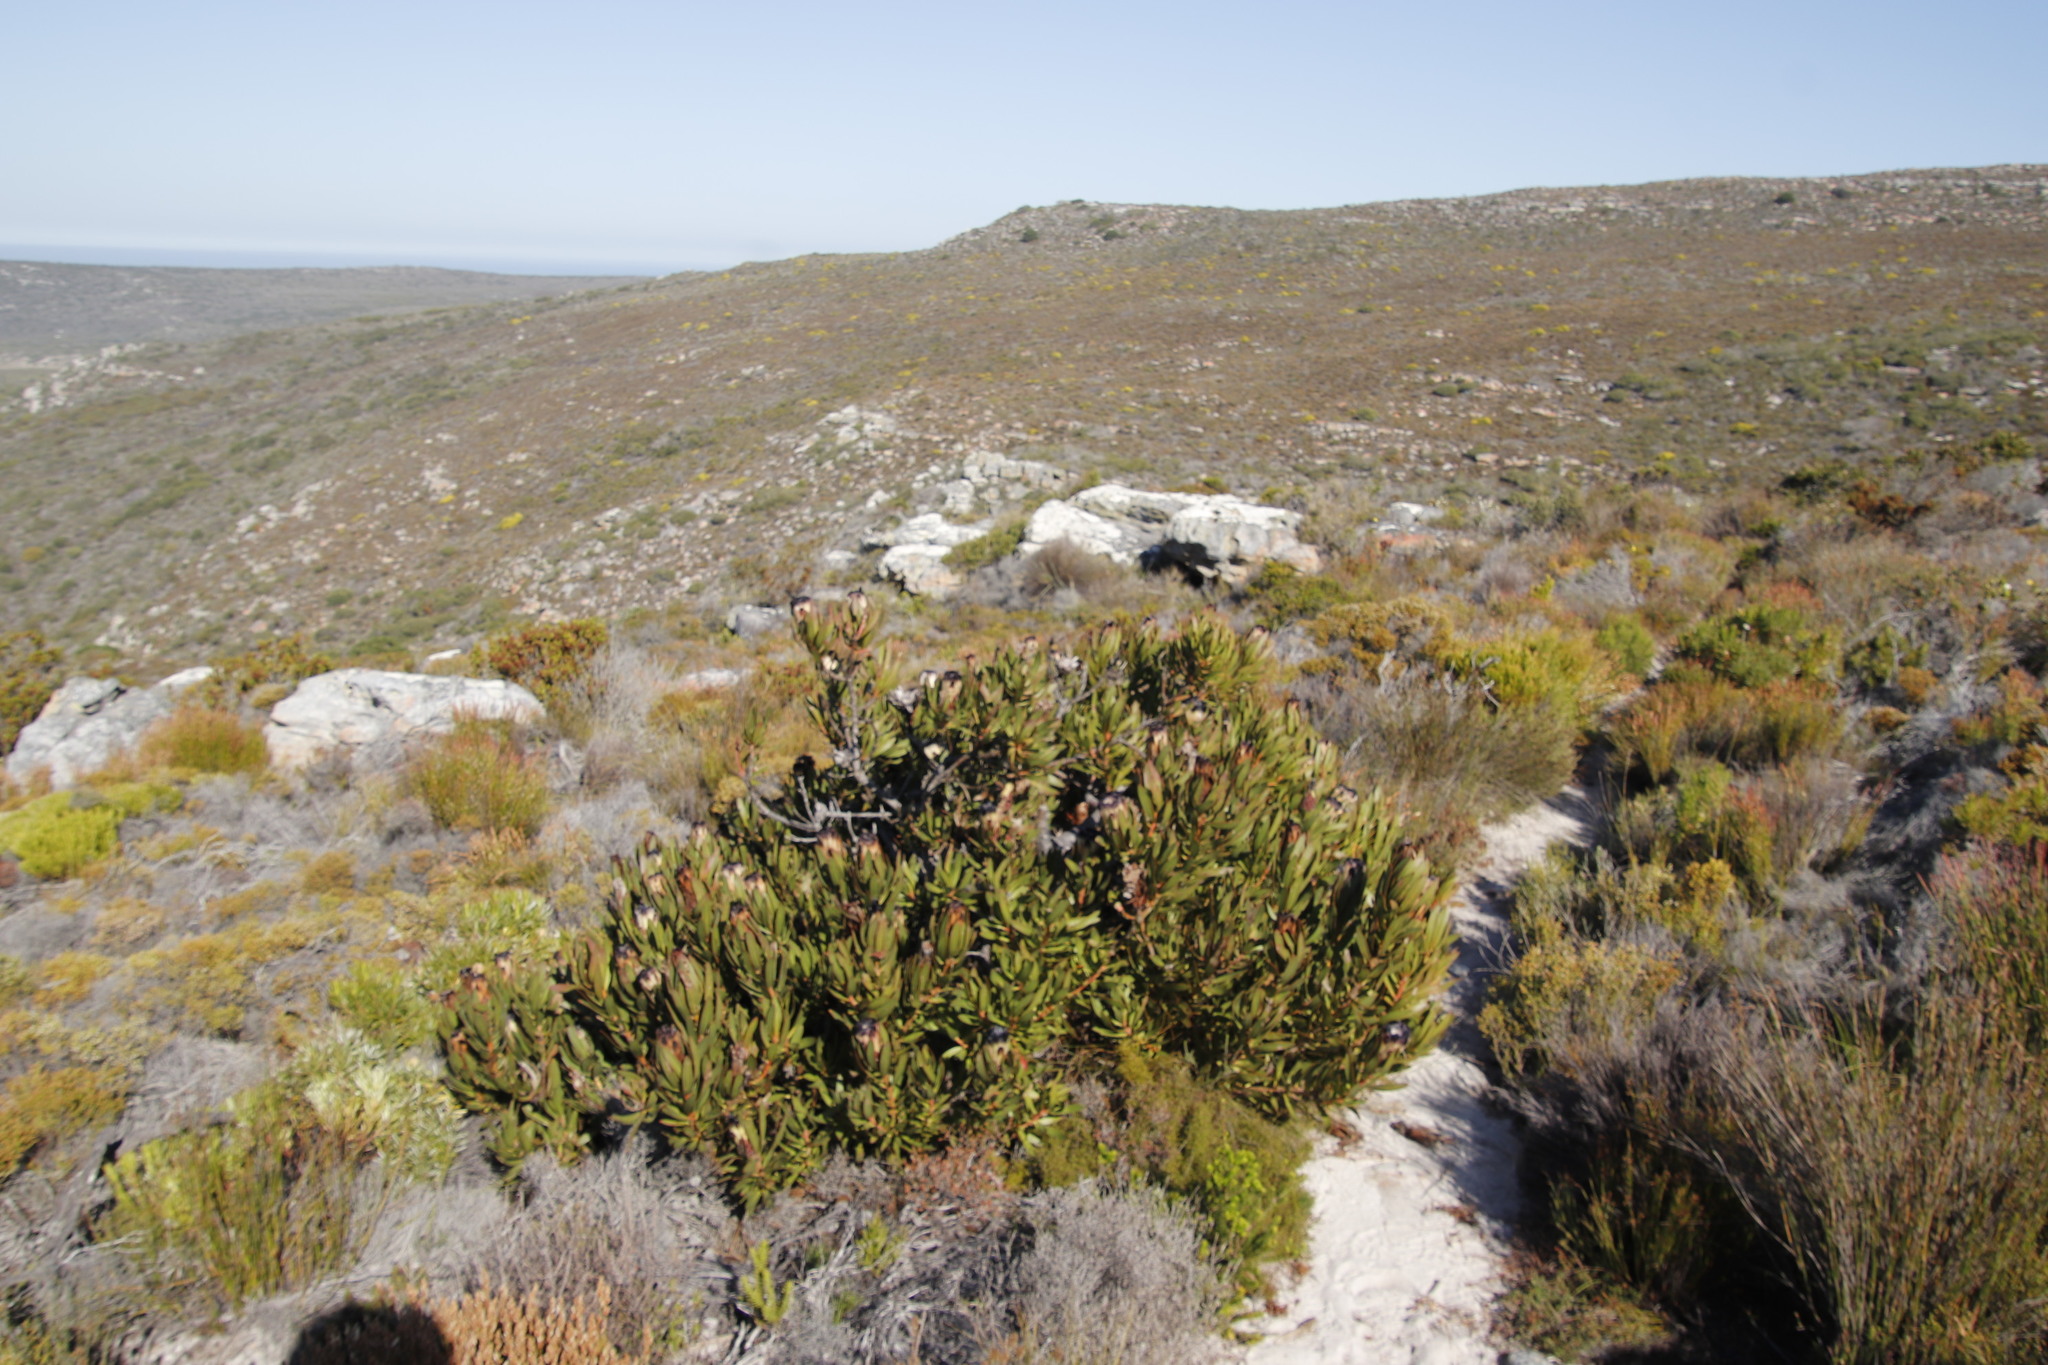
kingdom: Plantae
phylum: Tracheophyta
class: Magnoliopsida
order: Proteales
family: Proteaceae
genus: Protea
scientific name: Protea lepidocarpodendron
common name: Black-bearded protea
